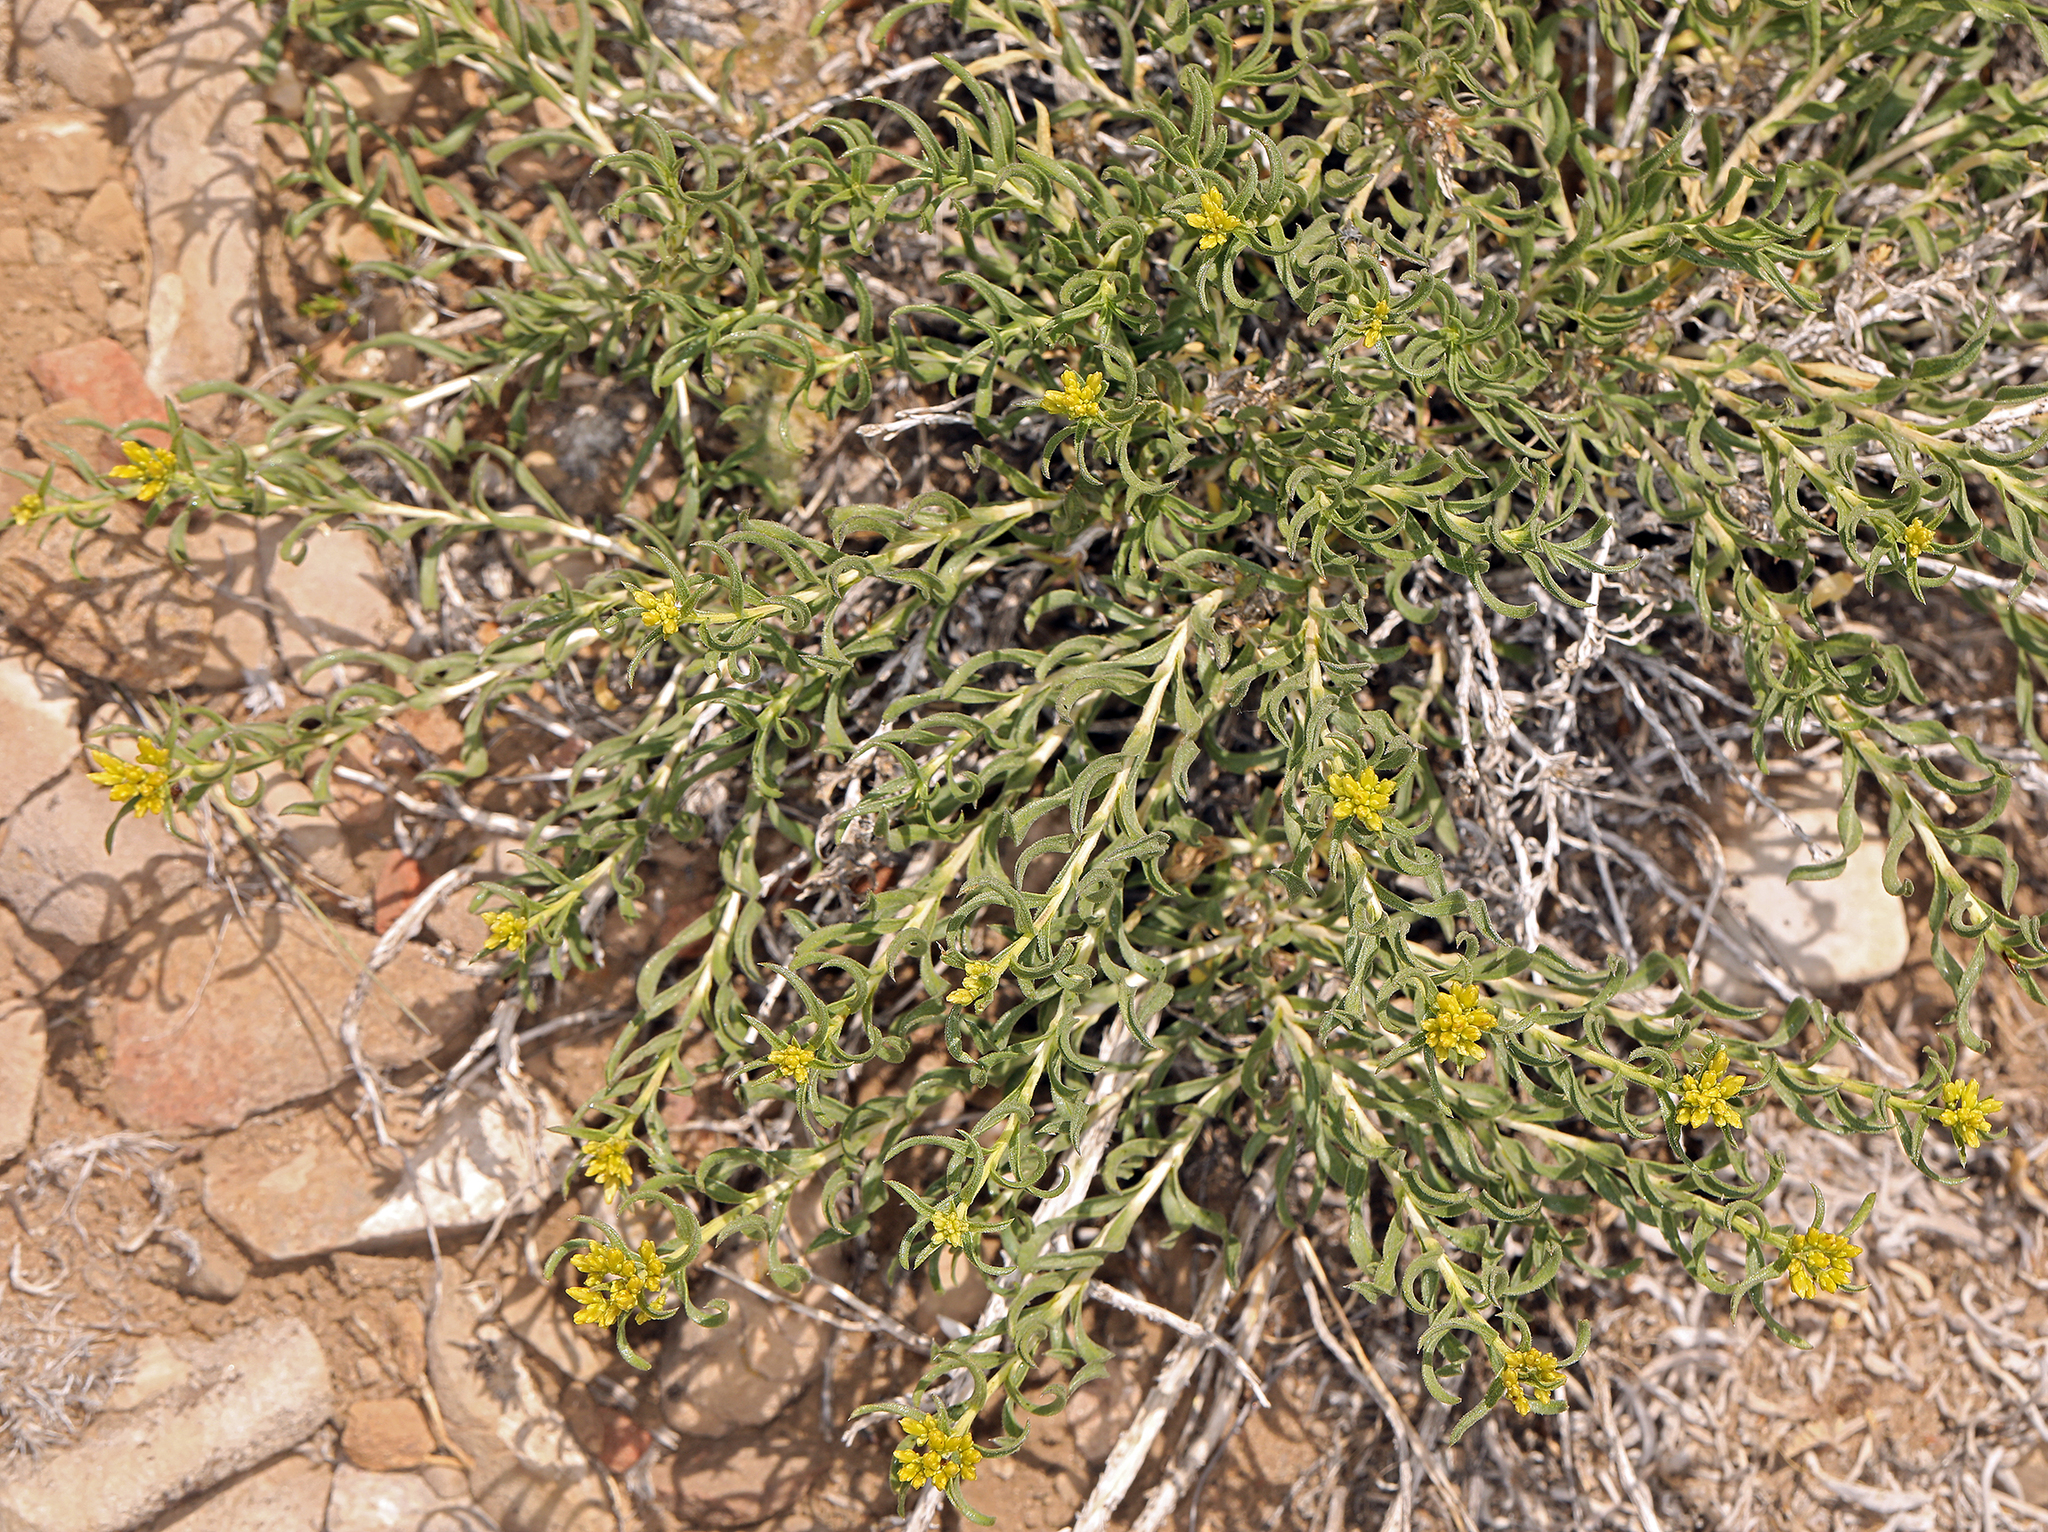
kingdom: Plantae
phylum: Tracheophyta
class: Magnoliopsida
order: Asterales
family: Asteraceae
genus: Chrysothamnus
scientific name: Chrysothamnus viscidiflorus
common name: Yellow rabbitbrush
